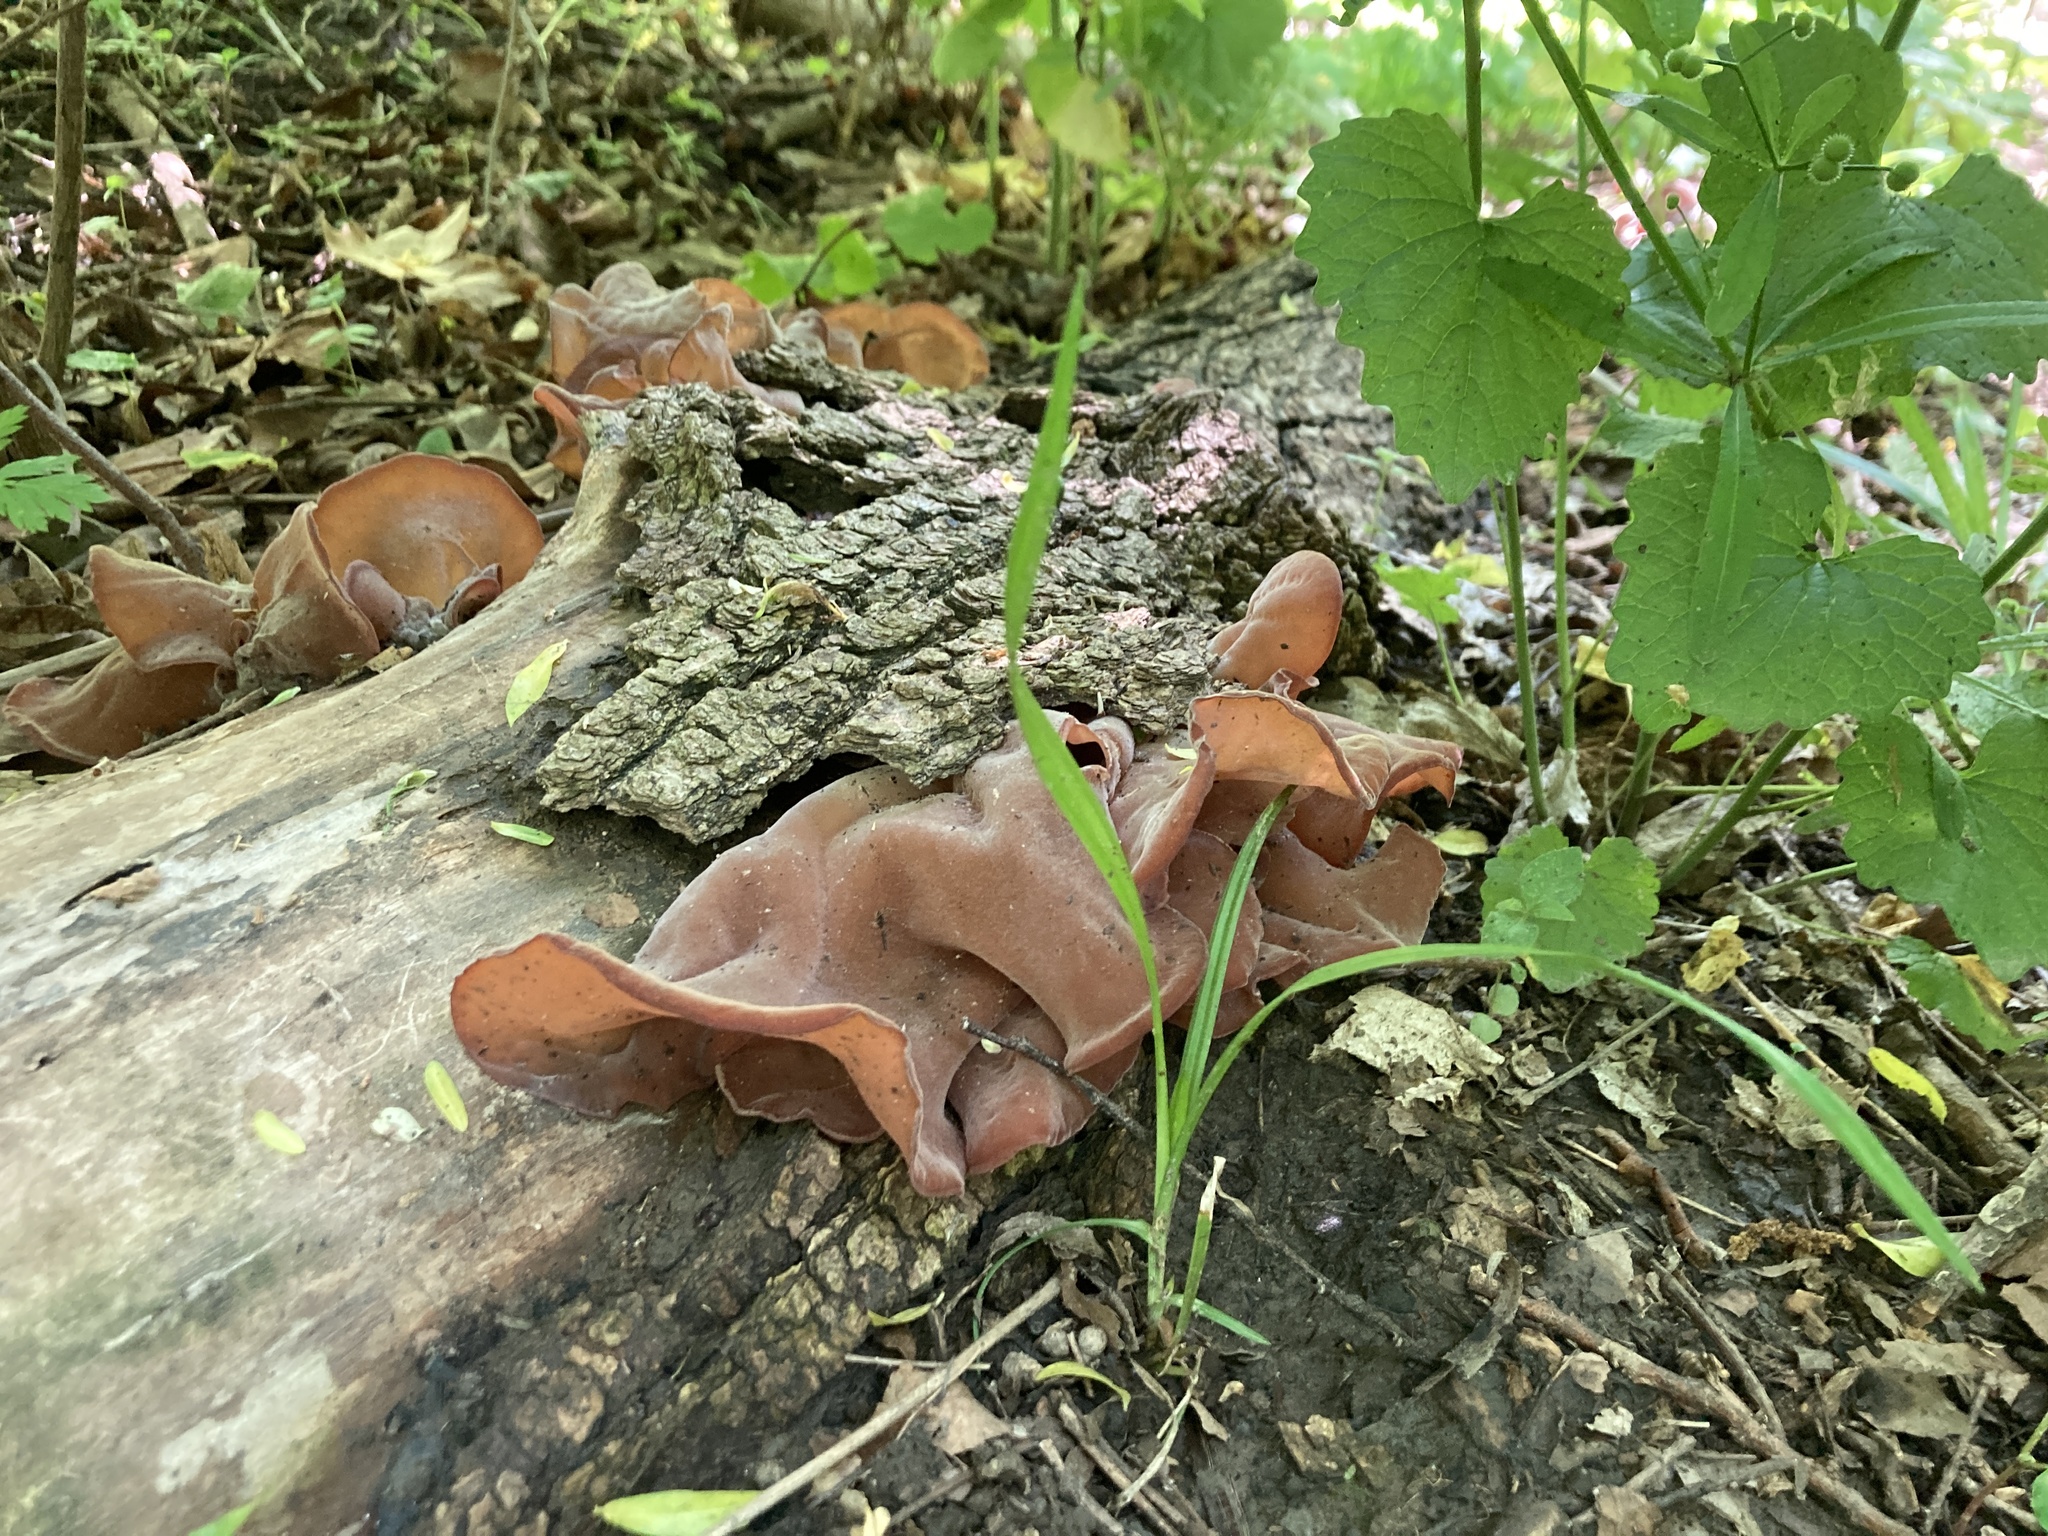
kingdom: Fungi
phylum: Basidiomycota
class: Agaricomycetes
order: Auriculariales
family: Auriculariaceae
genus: Auricularia
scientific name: Auricularia americana
